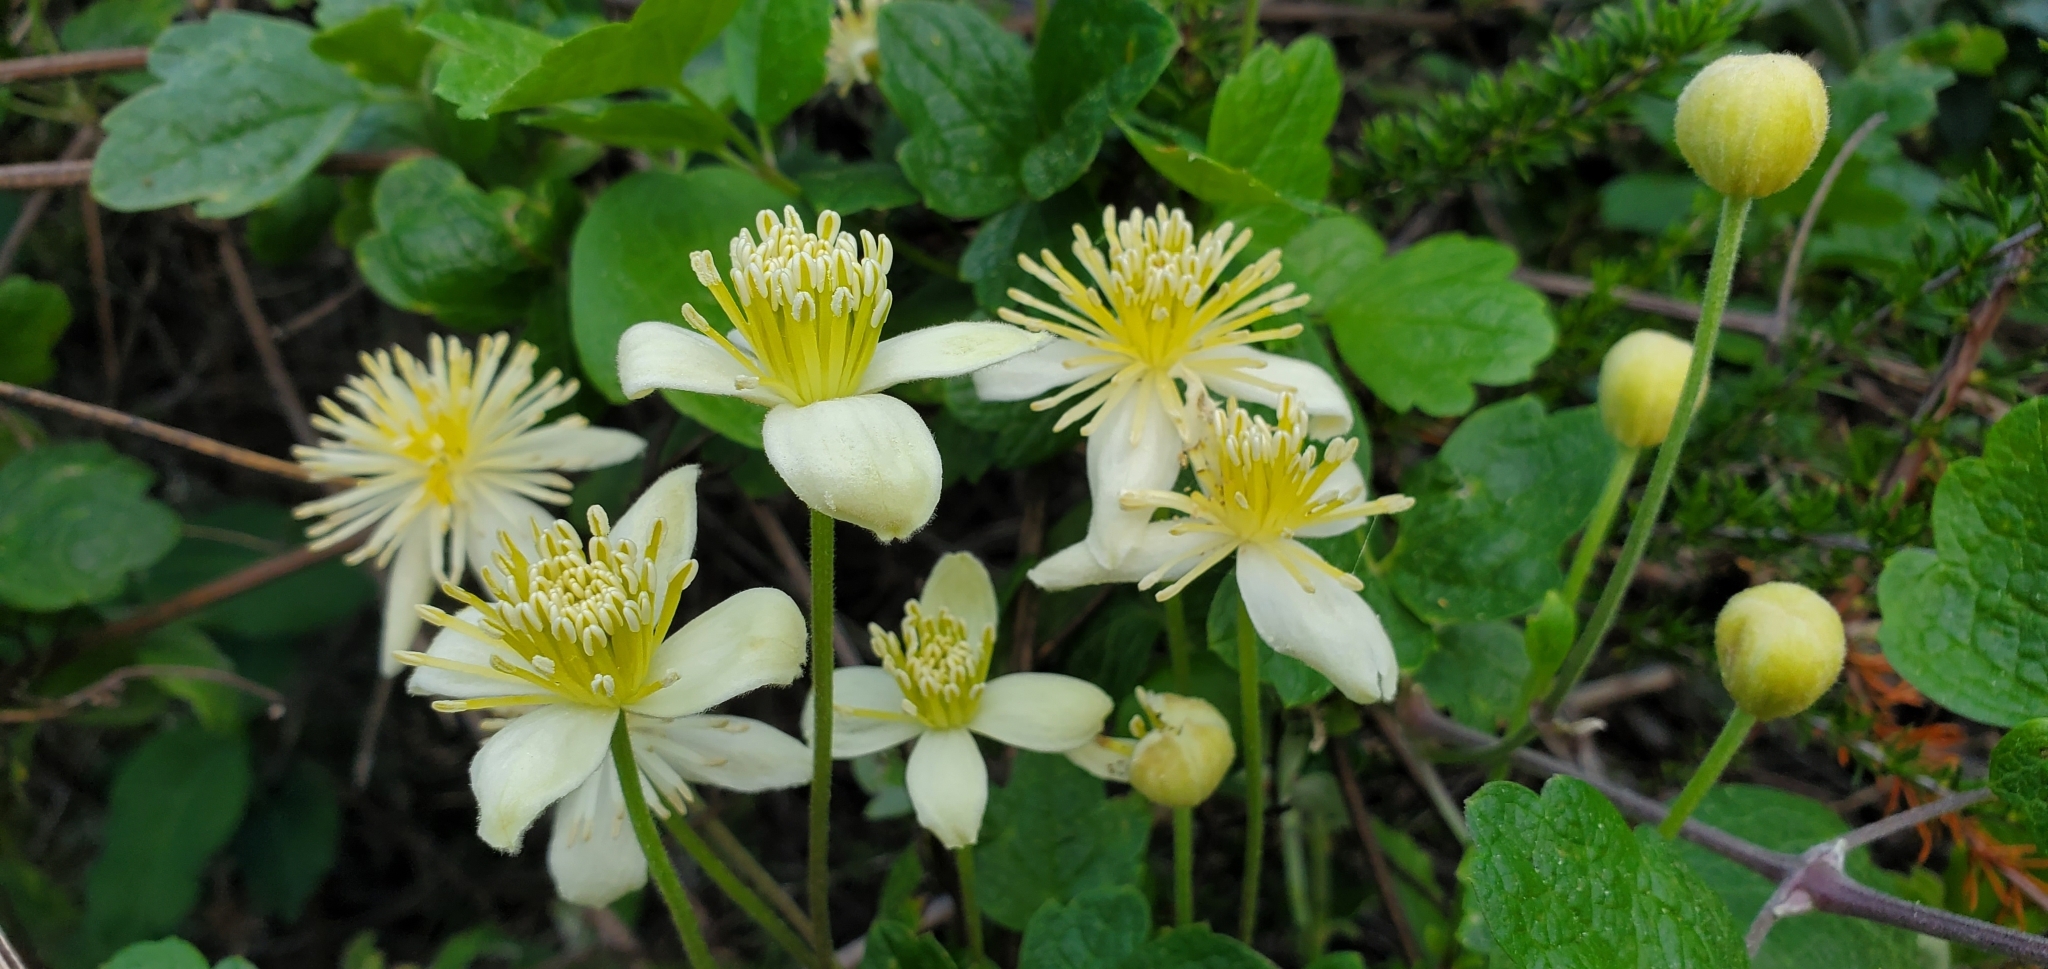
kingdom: Plantae
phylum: Tracheophyta
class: Magnoliopsida
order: Ranunculales
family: Ranunculaceae
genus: Clematis
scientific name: Clematis lasiantha
